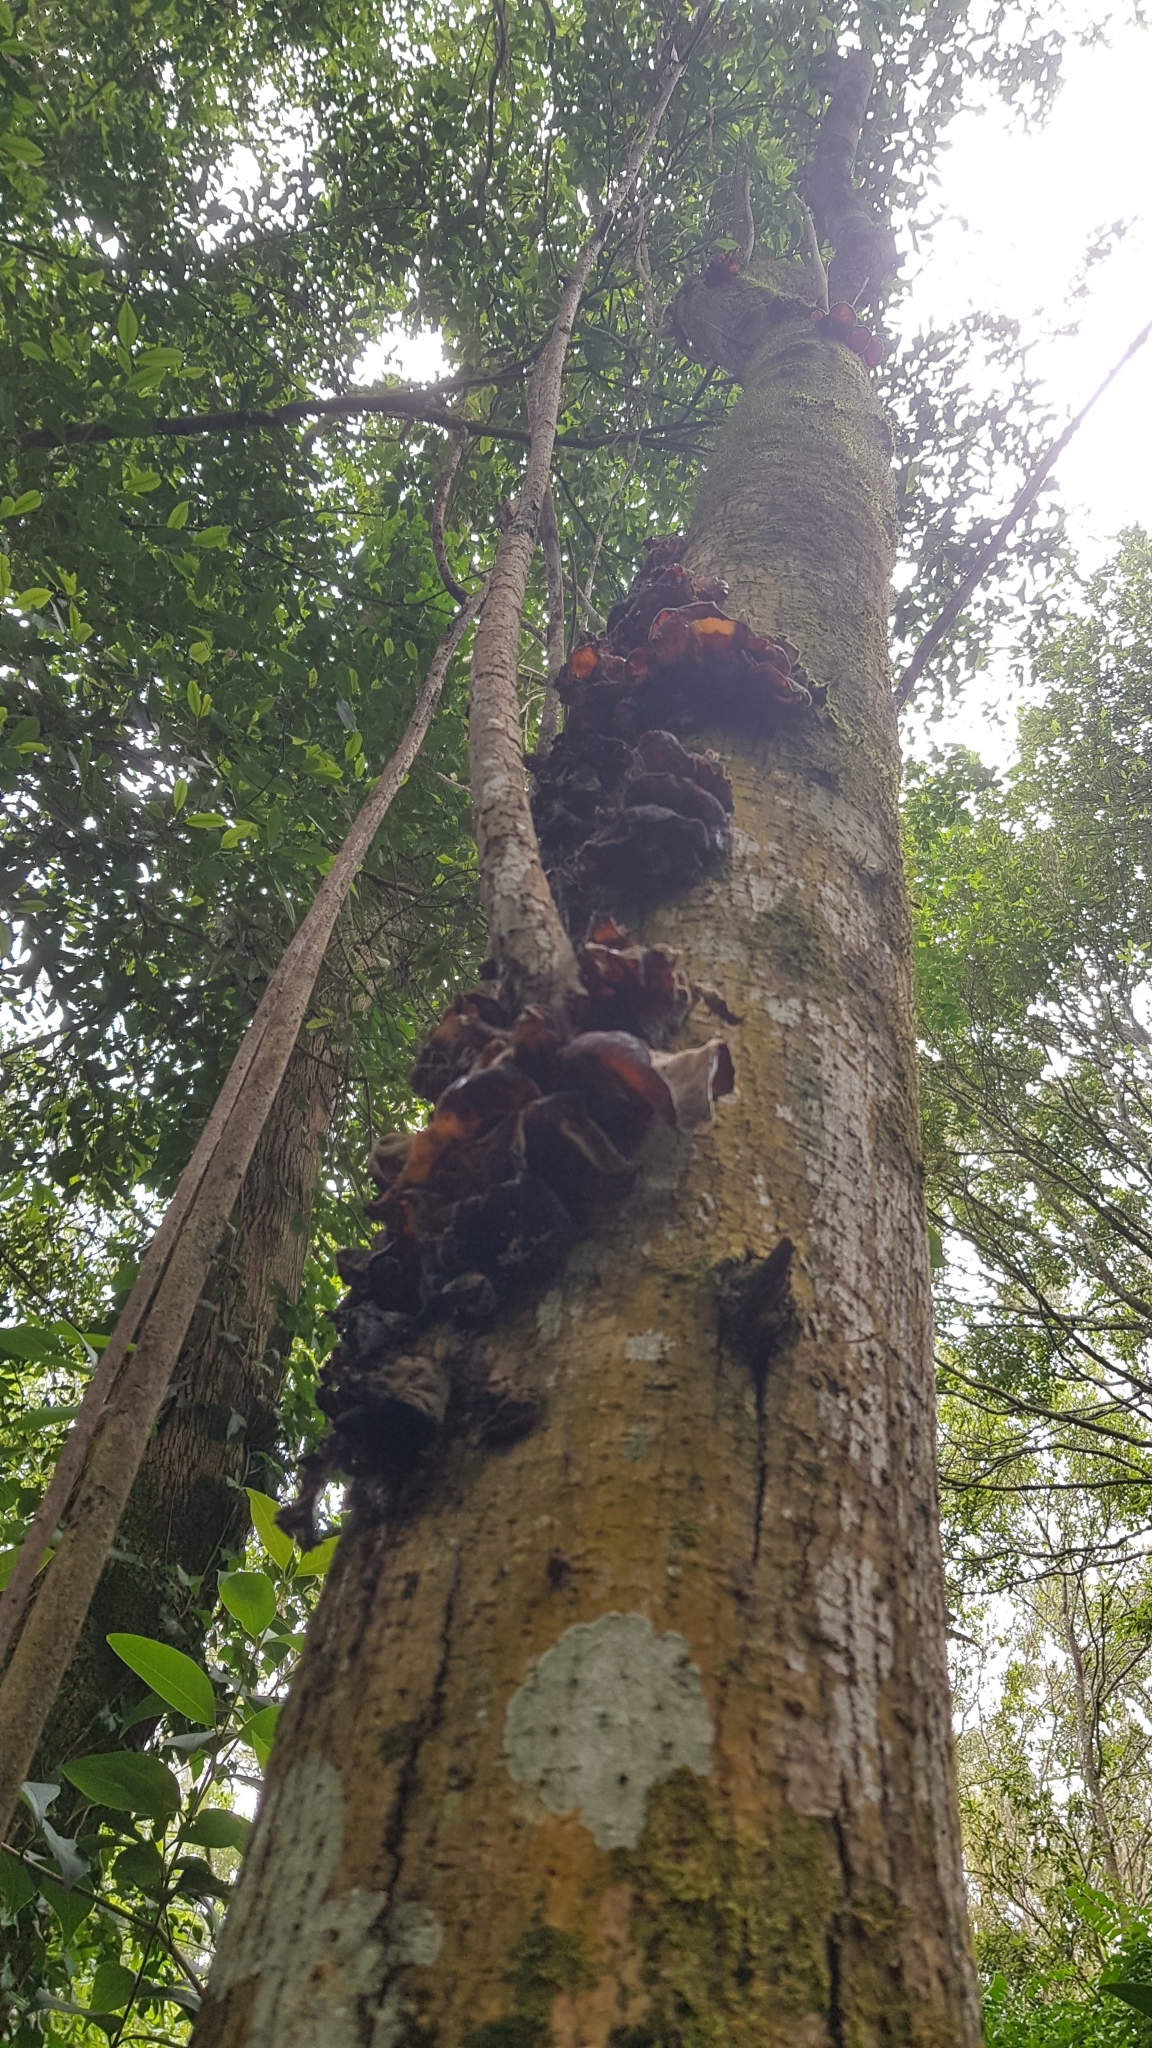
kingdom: Fungi
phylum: Basidiomycota
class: Agaricomycetes
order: Auriculariales
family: Auriculariaceae
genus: Auricularia
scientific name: Auricularia cornea
